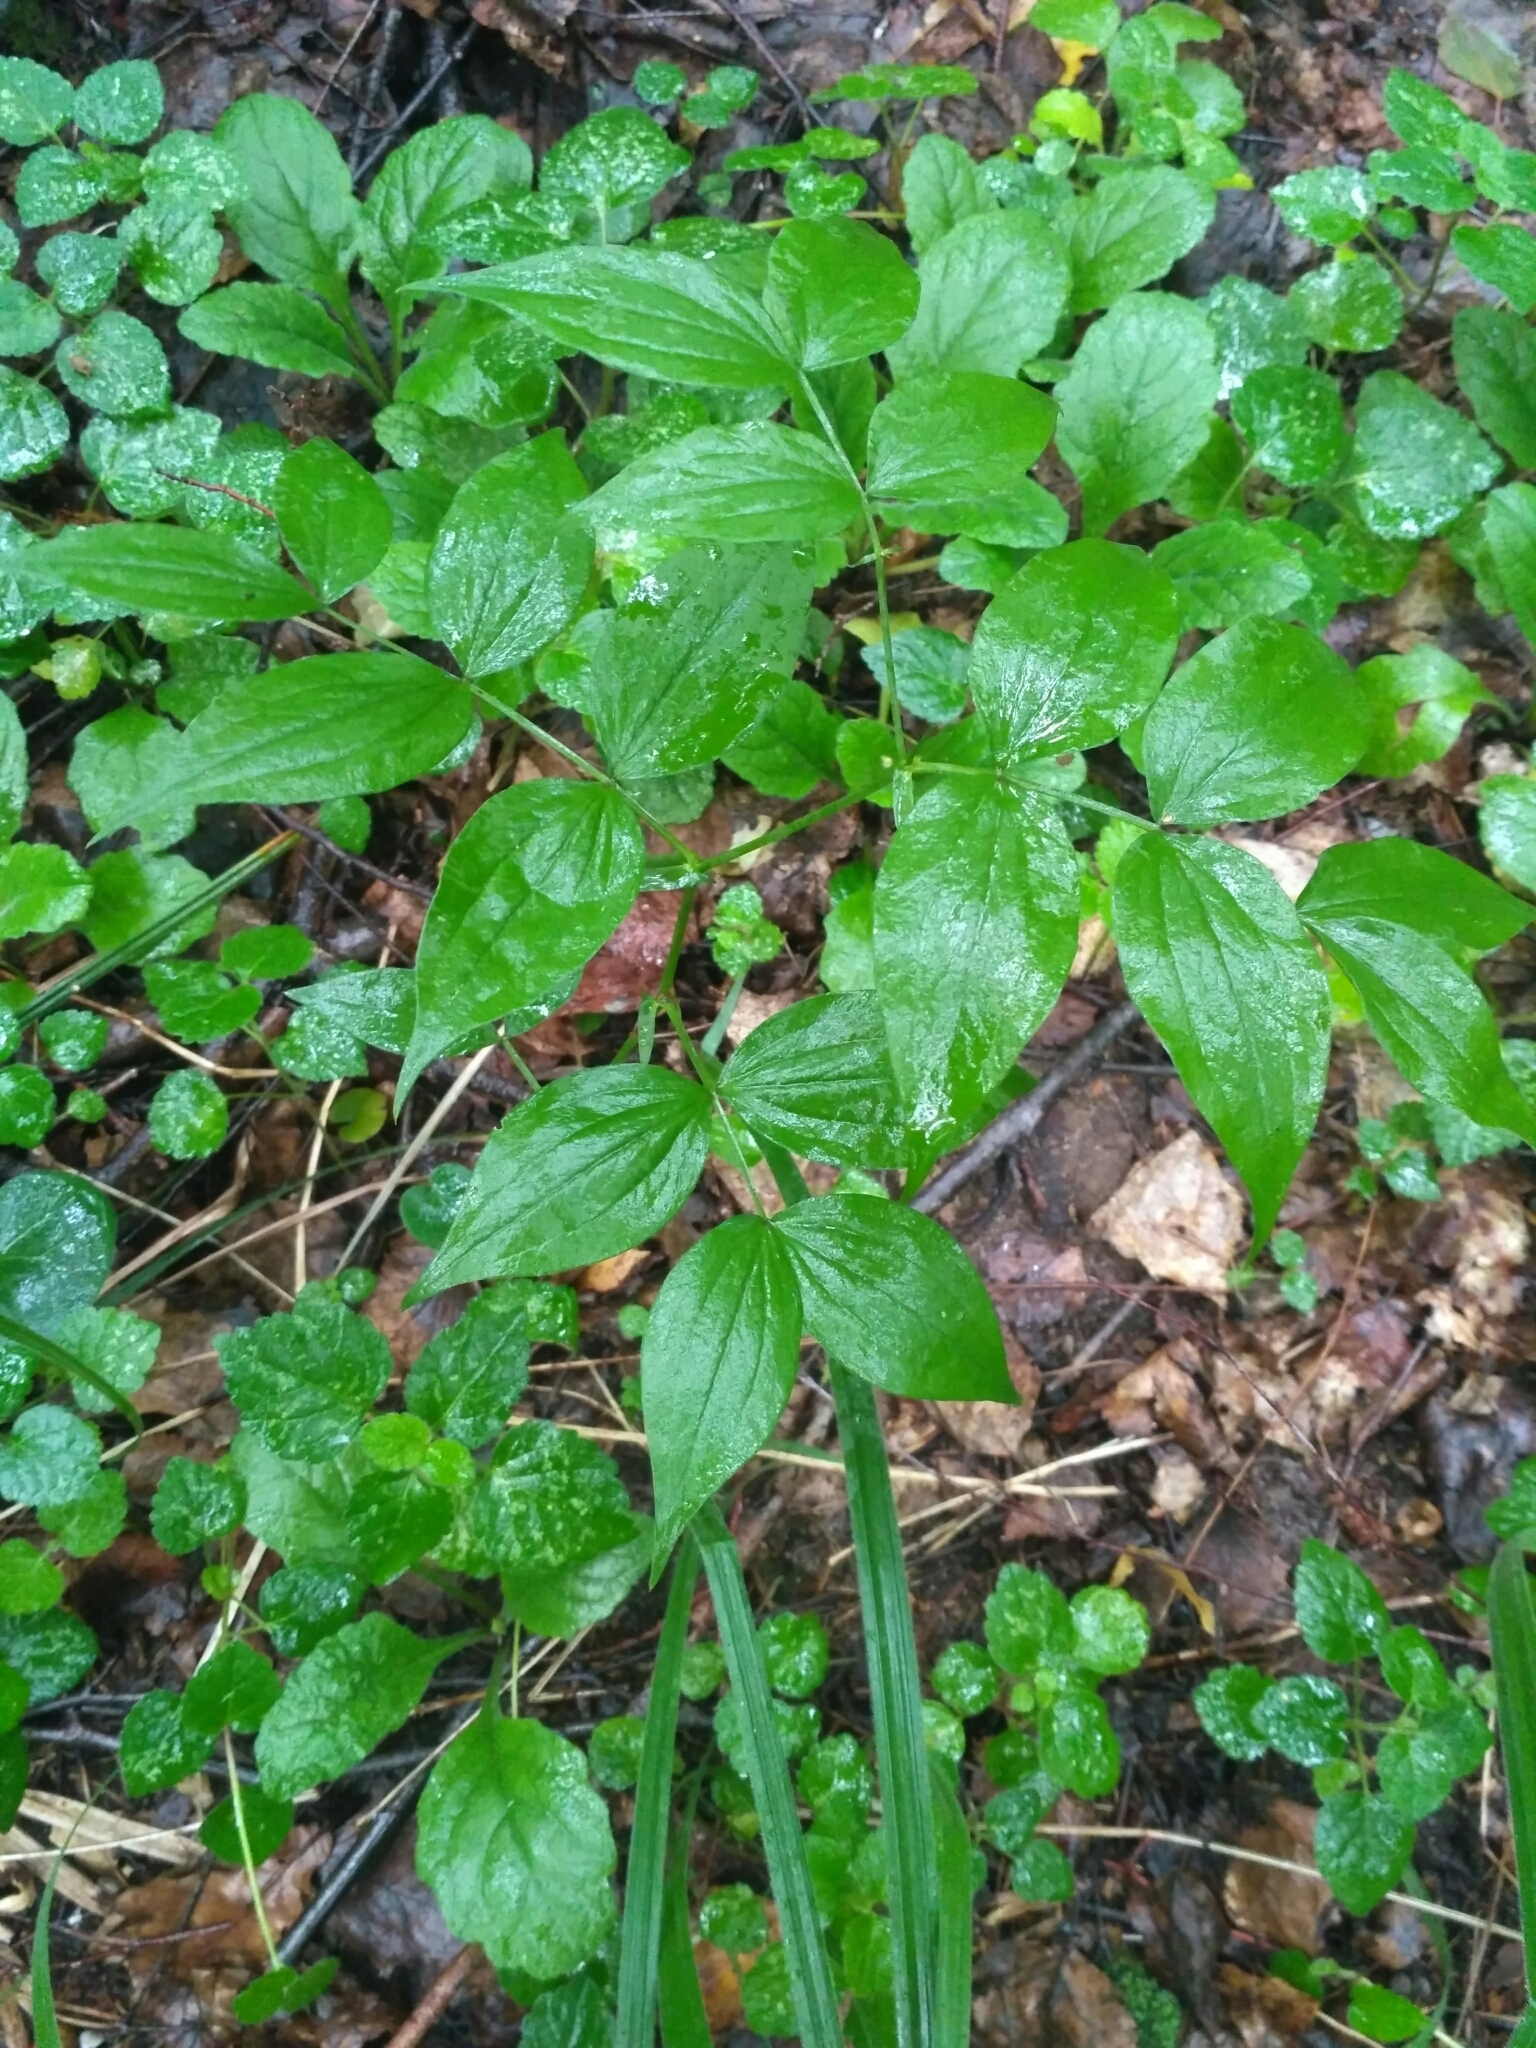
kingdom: Plantae
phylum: Tracheophyta
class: Magnoliopsida
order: Fabales
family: Fabaceae
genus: Lathyrus
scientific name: Lathyrus vernus
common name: Spring pea
